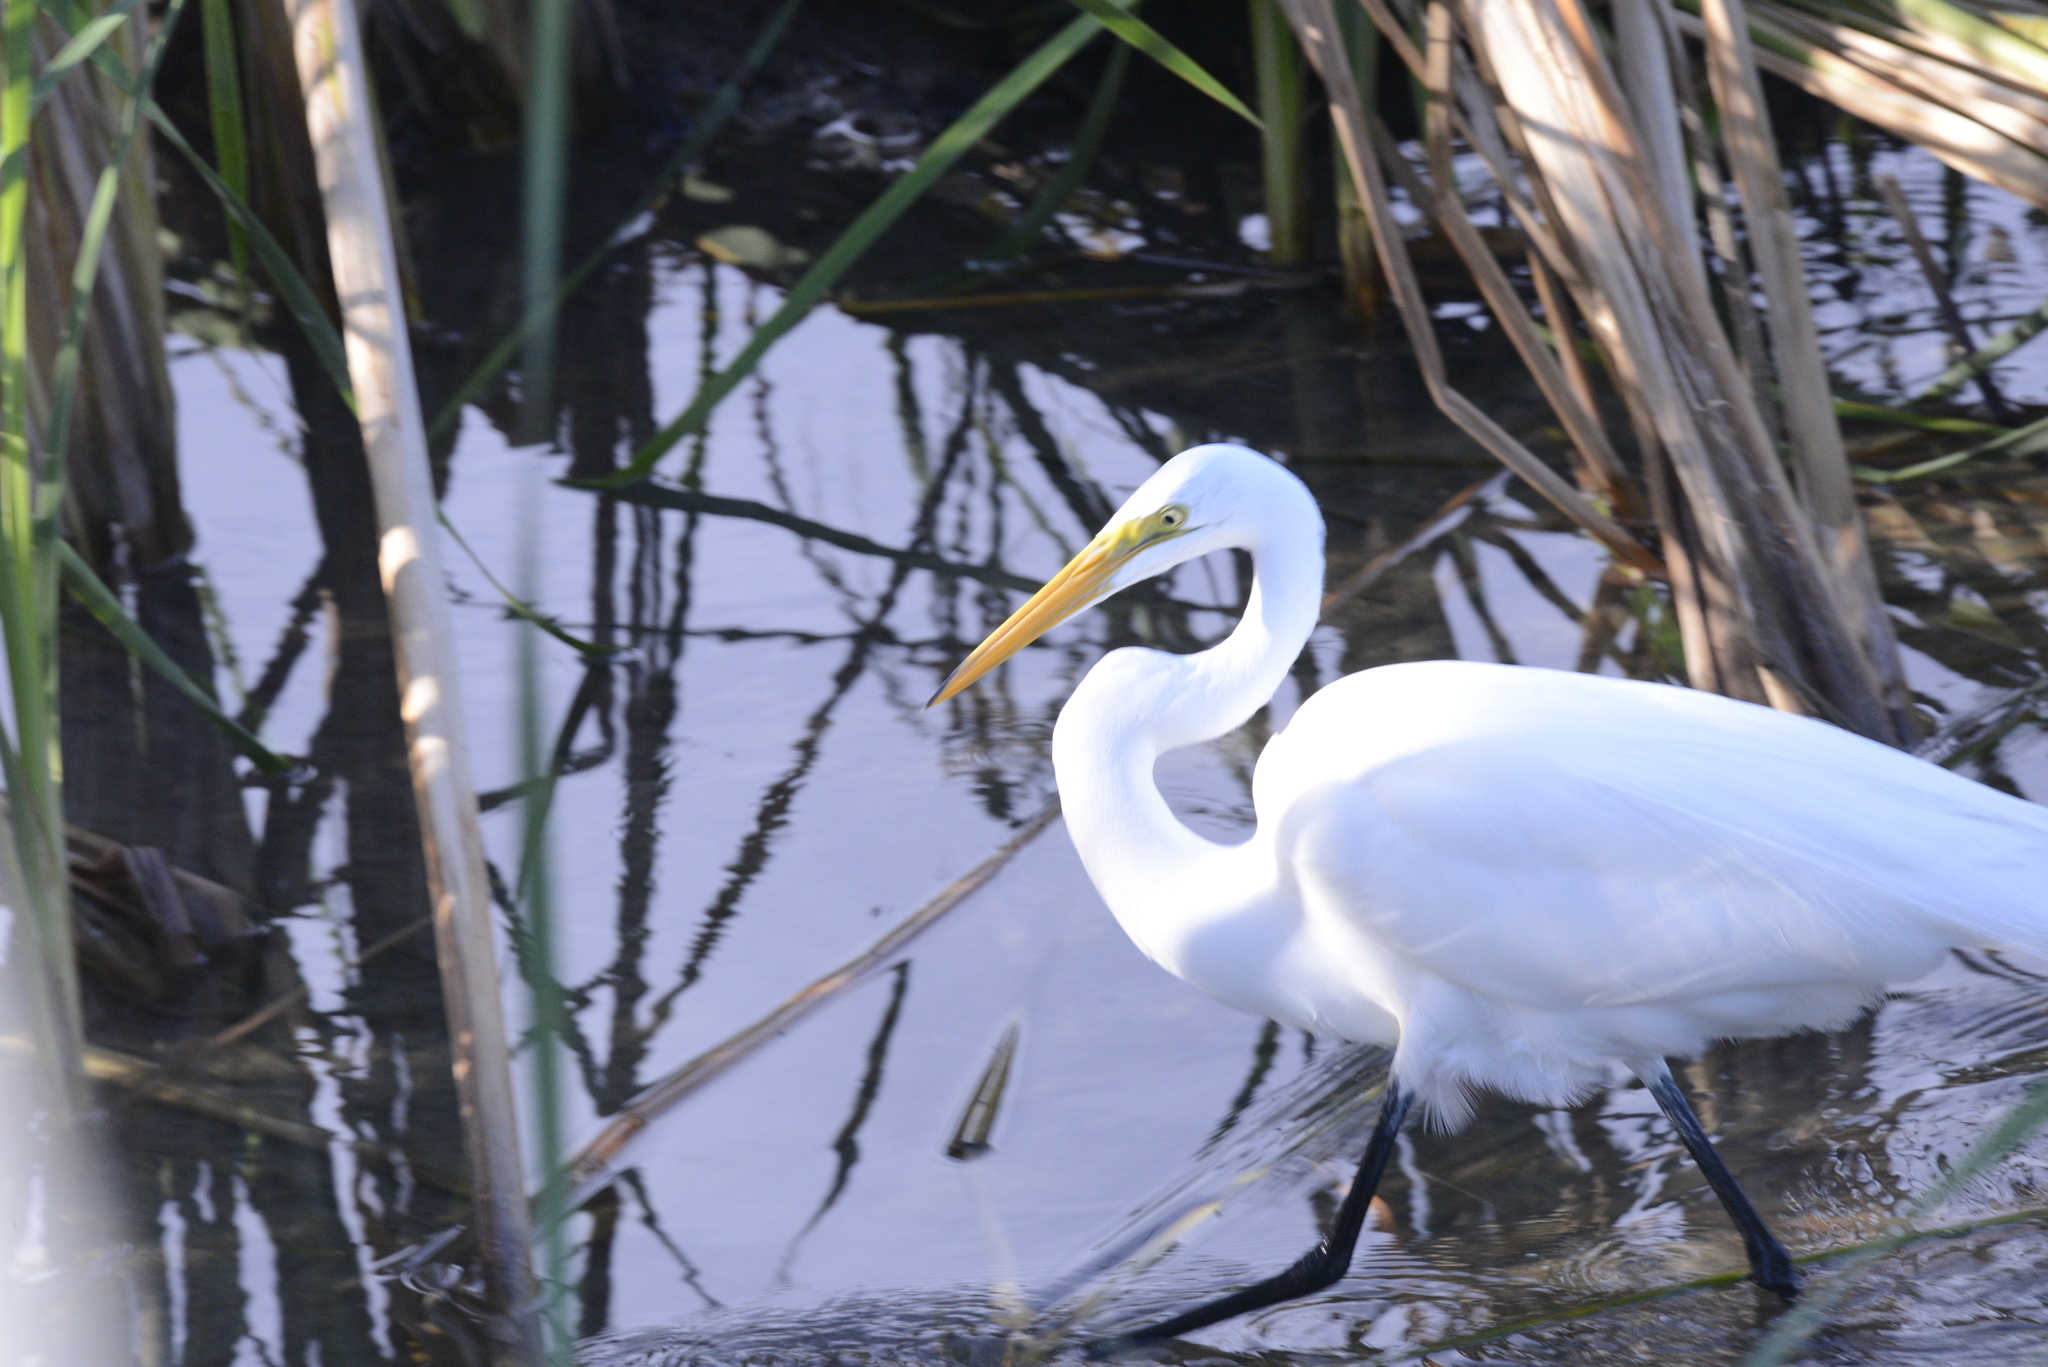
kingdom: Animalia
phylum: Chordata
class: Aves
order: Pelecaniformes
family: Ardeidae
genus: Ardea
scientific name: Ardea alba
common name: Great egret
